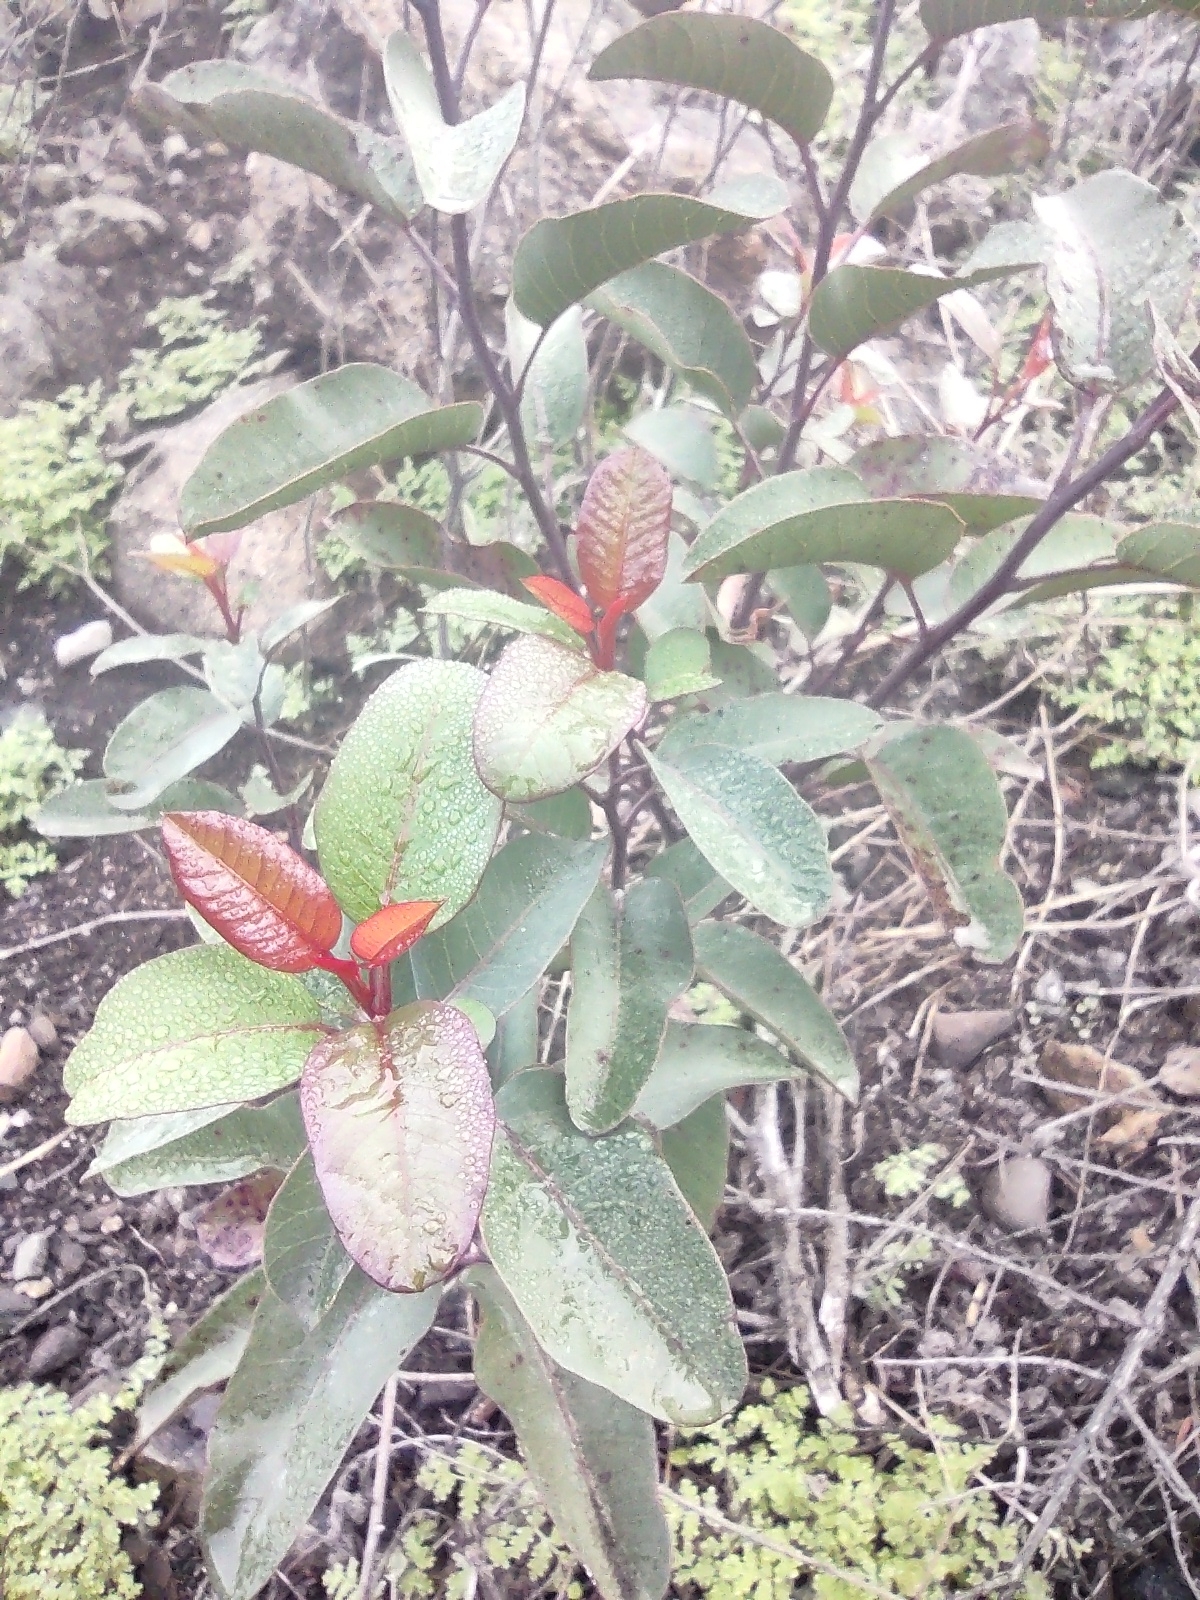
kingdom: Plantae
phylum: Tracheophyta
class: Magnoliopsida
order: Sapindales
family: Anacardiaceae
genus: Malosma
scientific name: Malosma laurina
